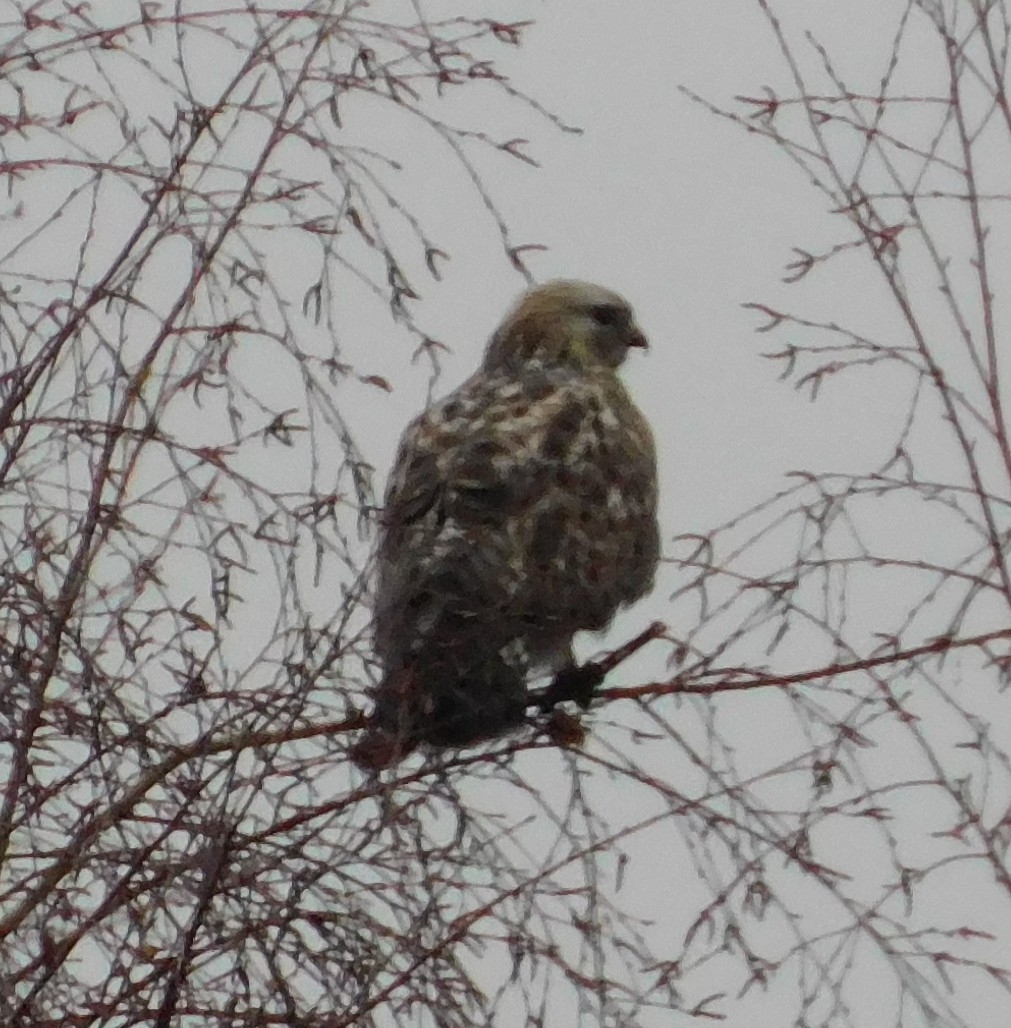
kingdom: Animalia
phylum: Chordata
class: Aves
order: Accipitriformes
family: Accipitridae
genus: Buteo
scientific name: Buteo lagopus
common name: Rough-legged buzzard
